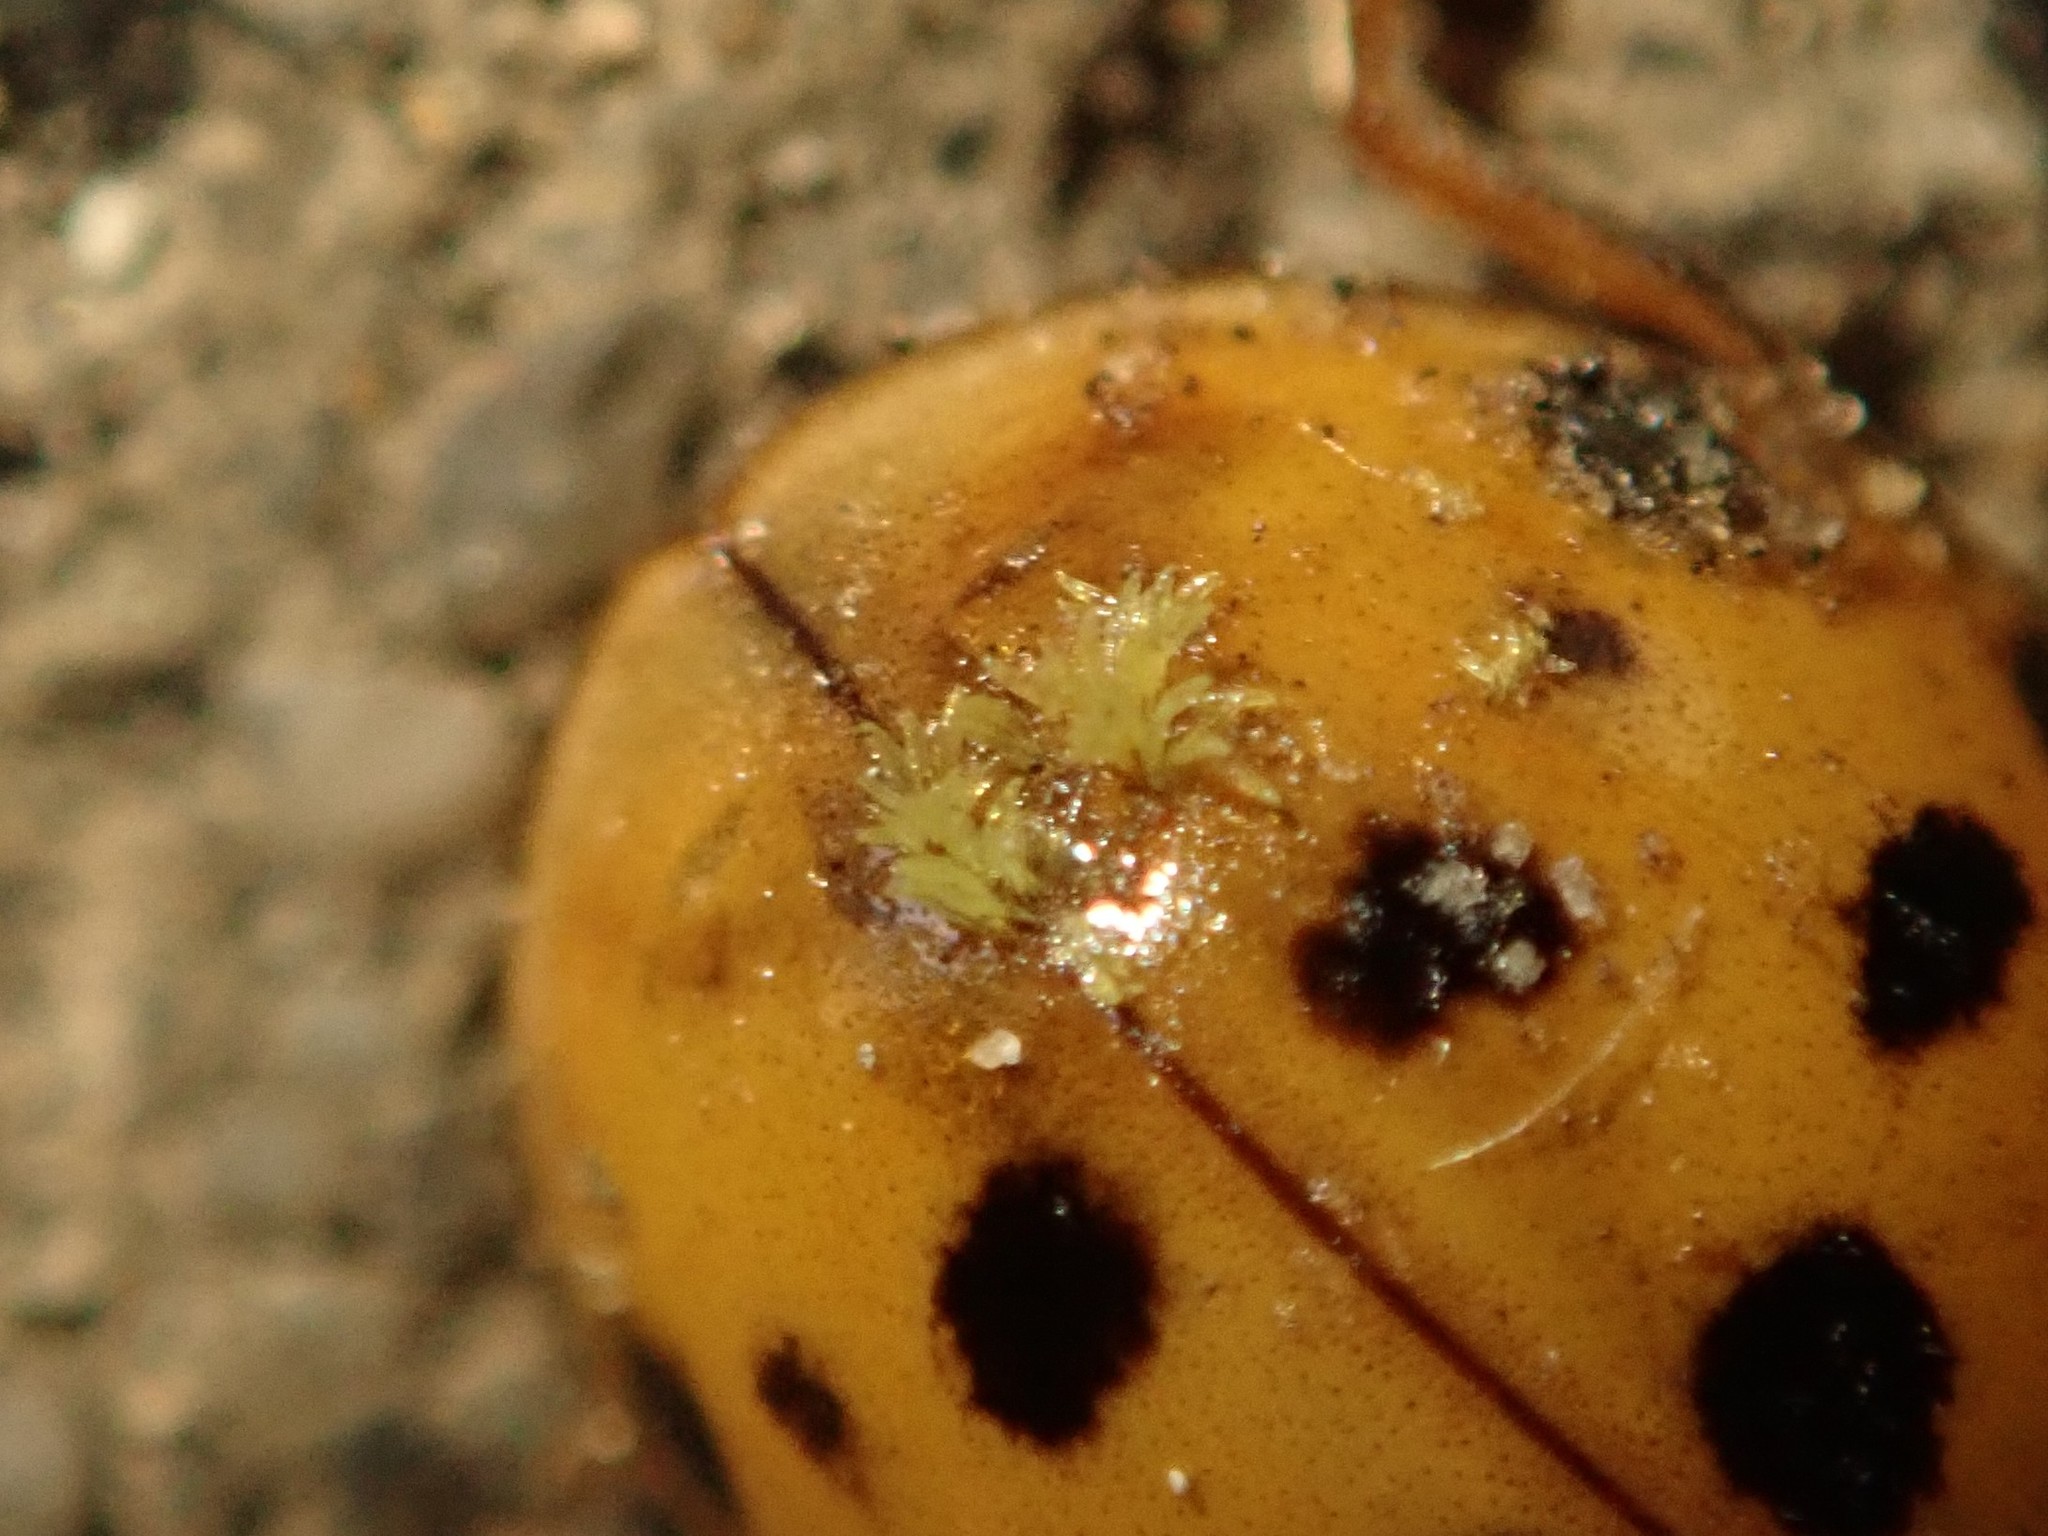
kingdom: Fungi
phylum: Ascomycota
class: Laboulbeniomycetes
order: Laboulbeniales
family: Laboulbeniaceae
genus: Hesperomyces
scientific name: Hesperomyces harmoniae
